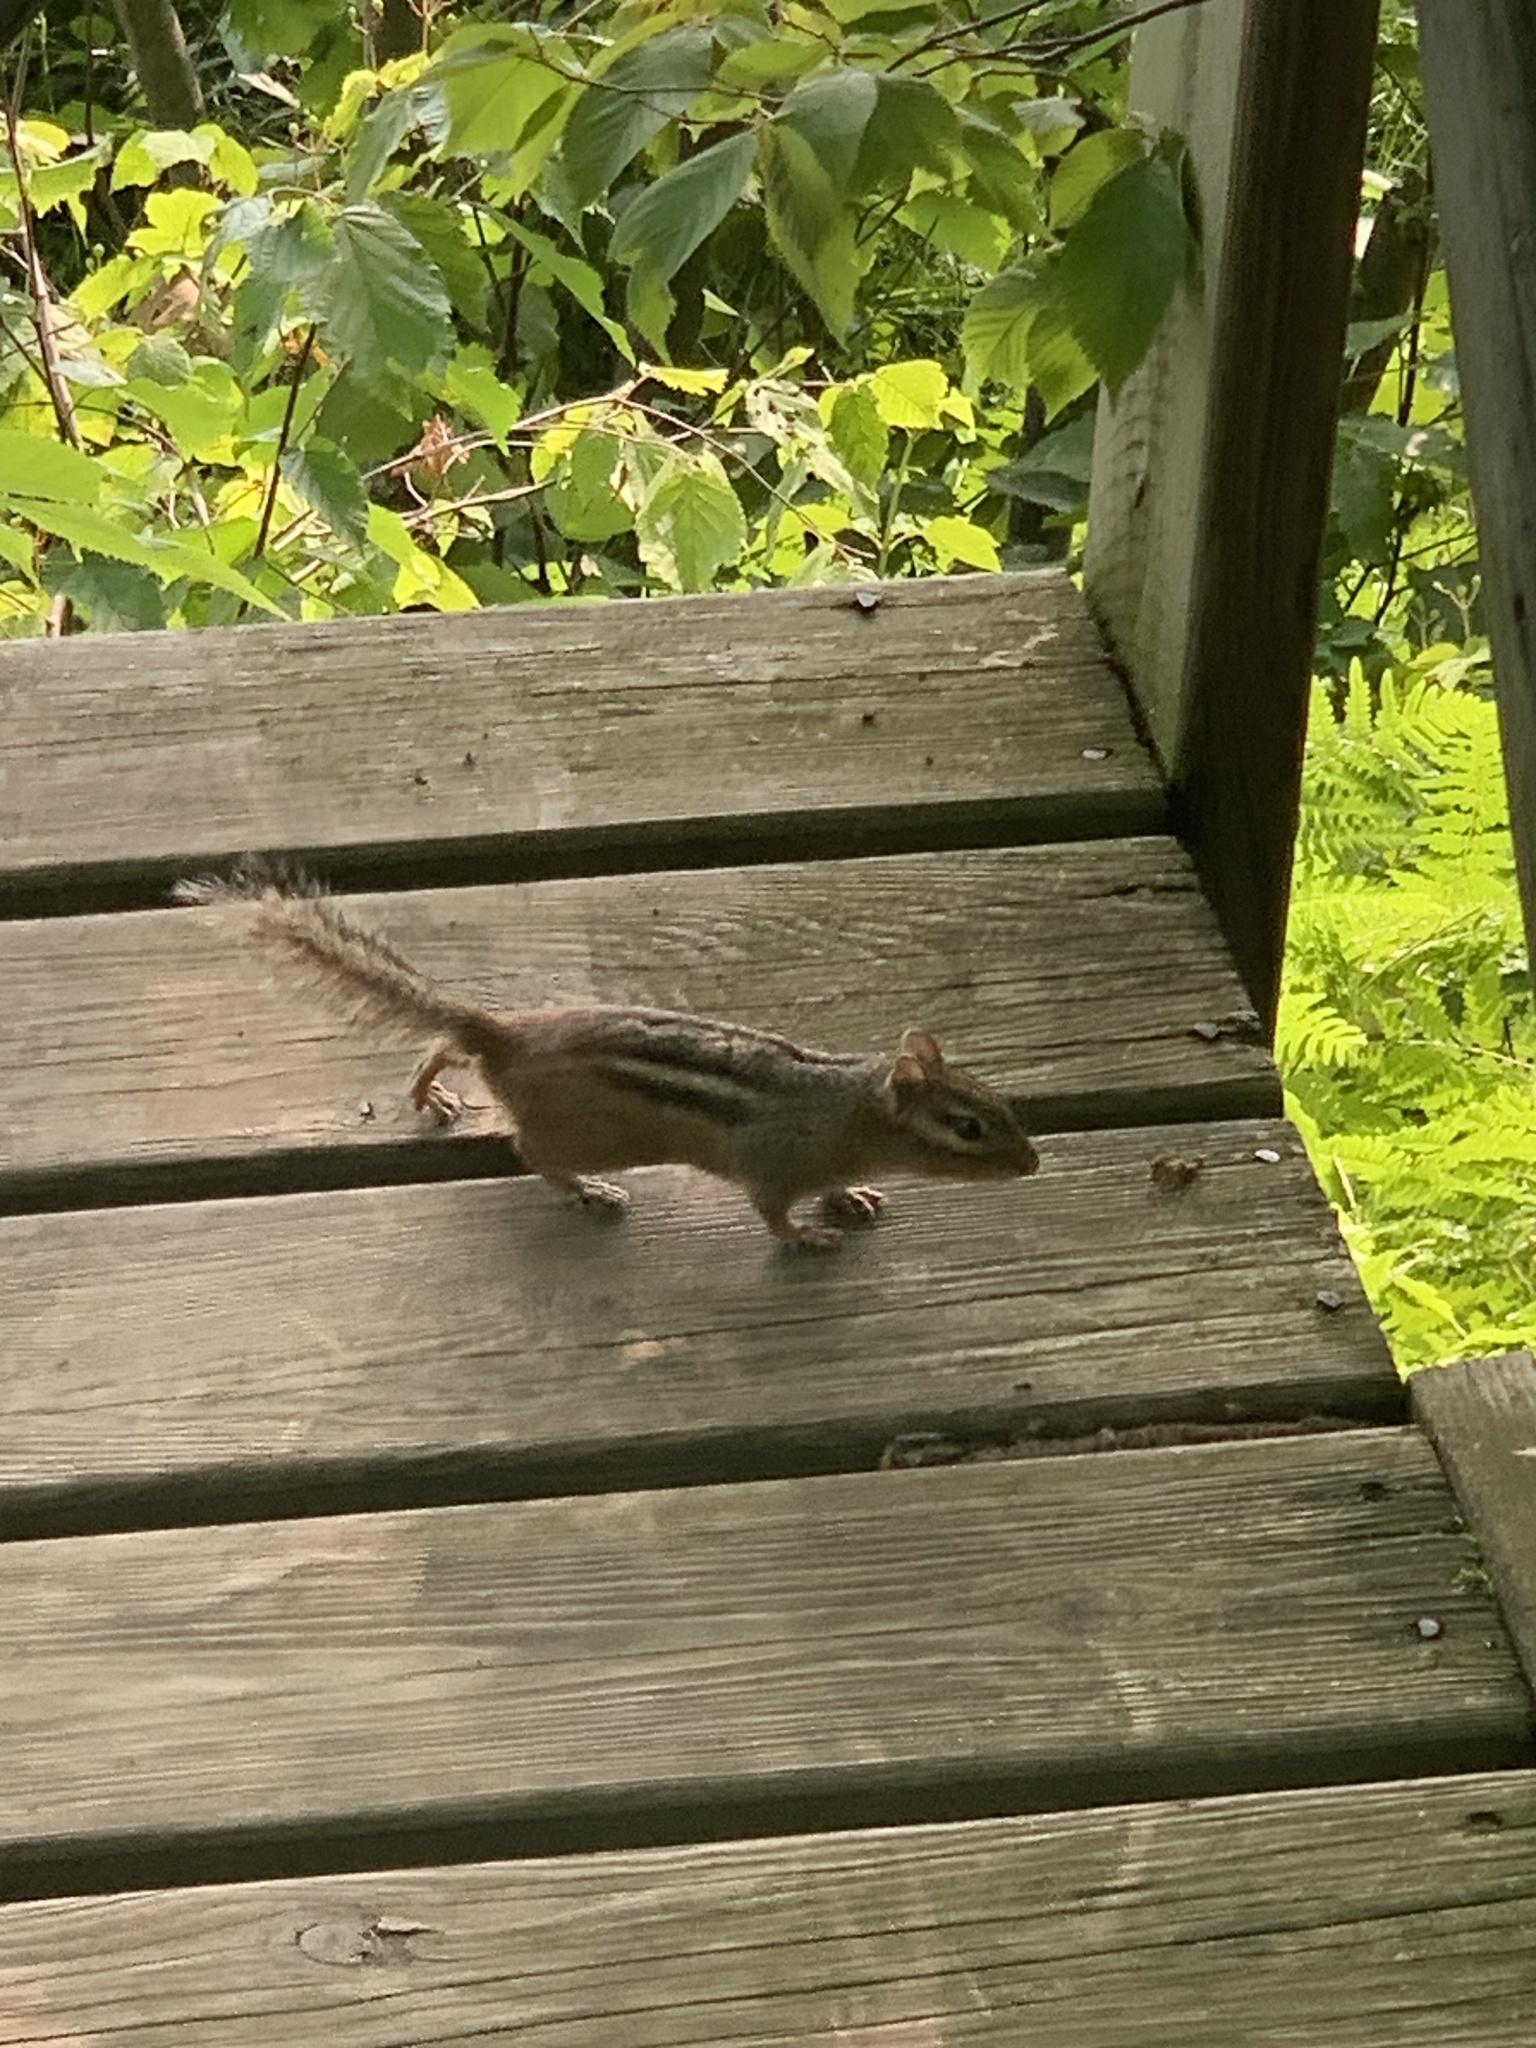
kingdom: Animalia
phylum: Chordata
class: Mammalia
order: Rodentia
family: Sciuridae
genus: Tamias
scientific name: Tamias striatus
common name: Eastern chipmunk
